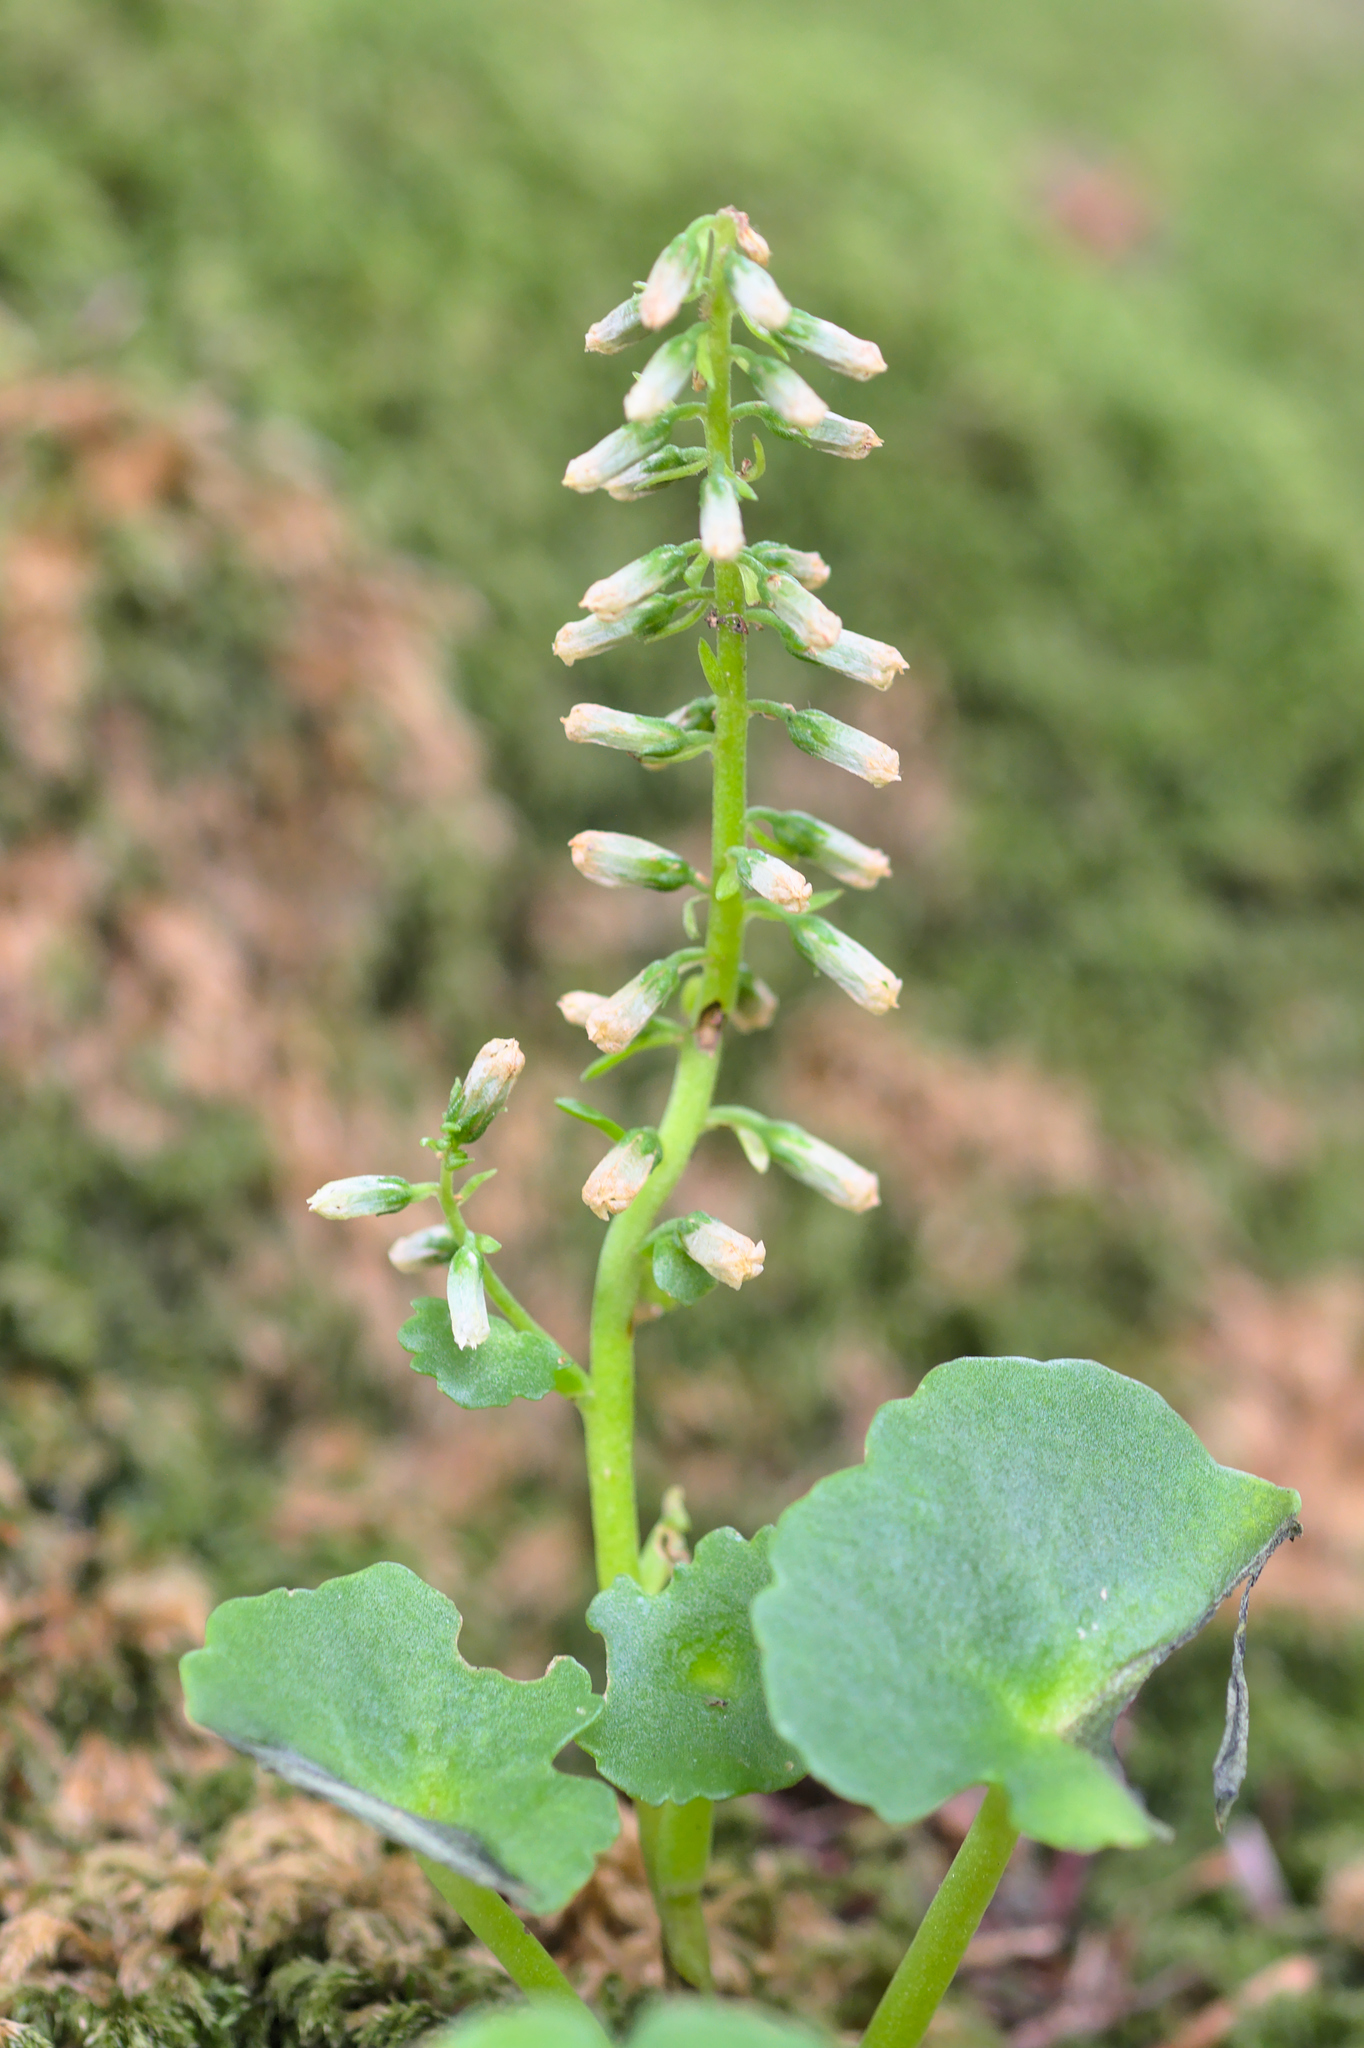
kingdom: Plantae
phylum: Tracheophyta
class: Magnoliopsida
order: Saxifragales
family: Crassulaceae
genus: Umbilicus
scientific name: Umbilicus rupestris
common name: Navelwort
